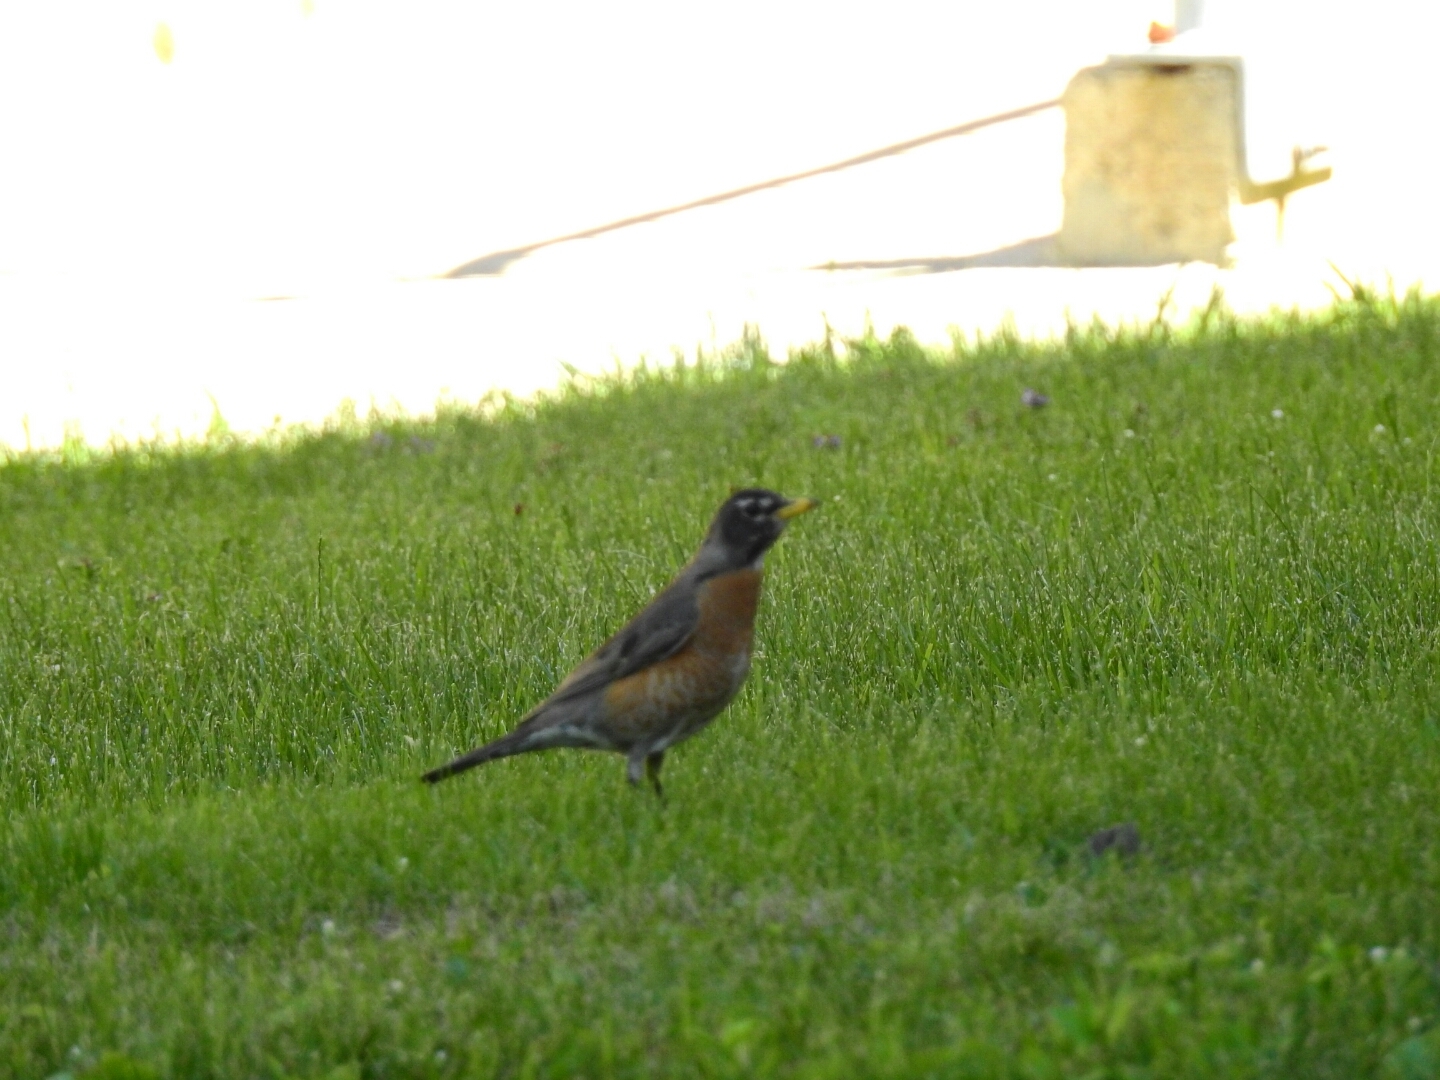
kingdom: Animalia
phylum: Chordata
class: Aves
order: Passeriformes
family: Turdidae
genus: Turdus
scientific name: Turdus migratorius
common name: American robin
